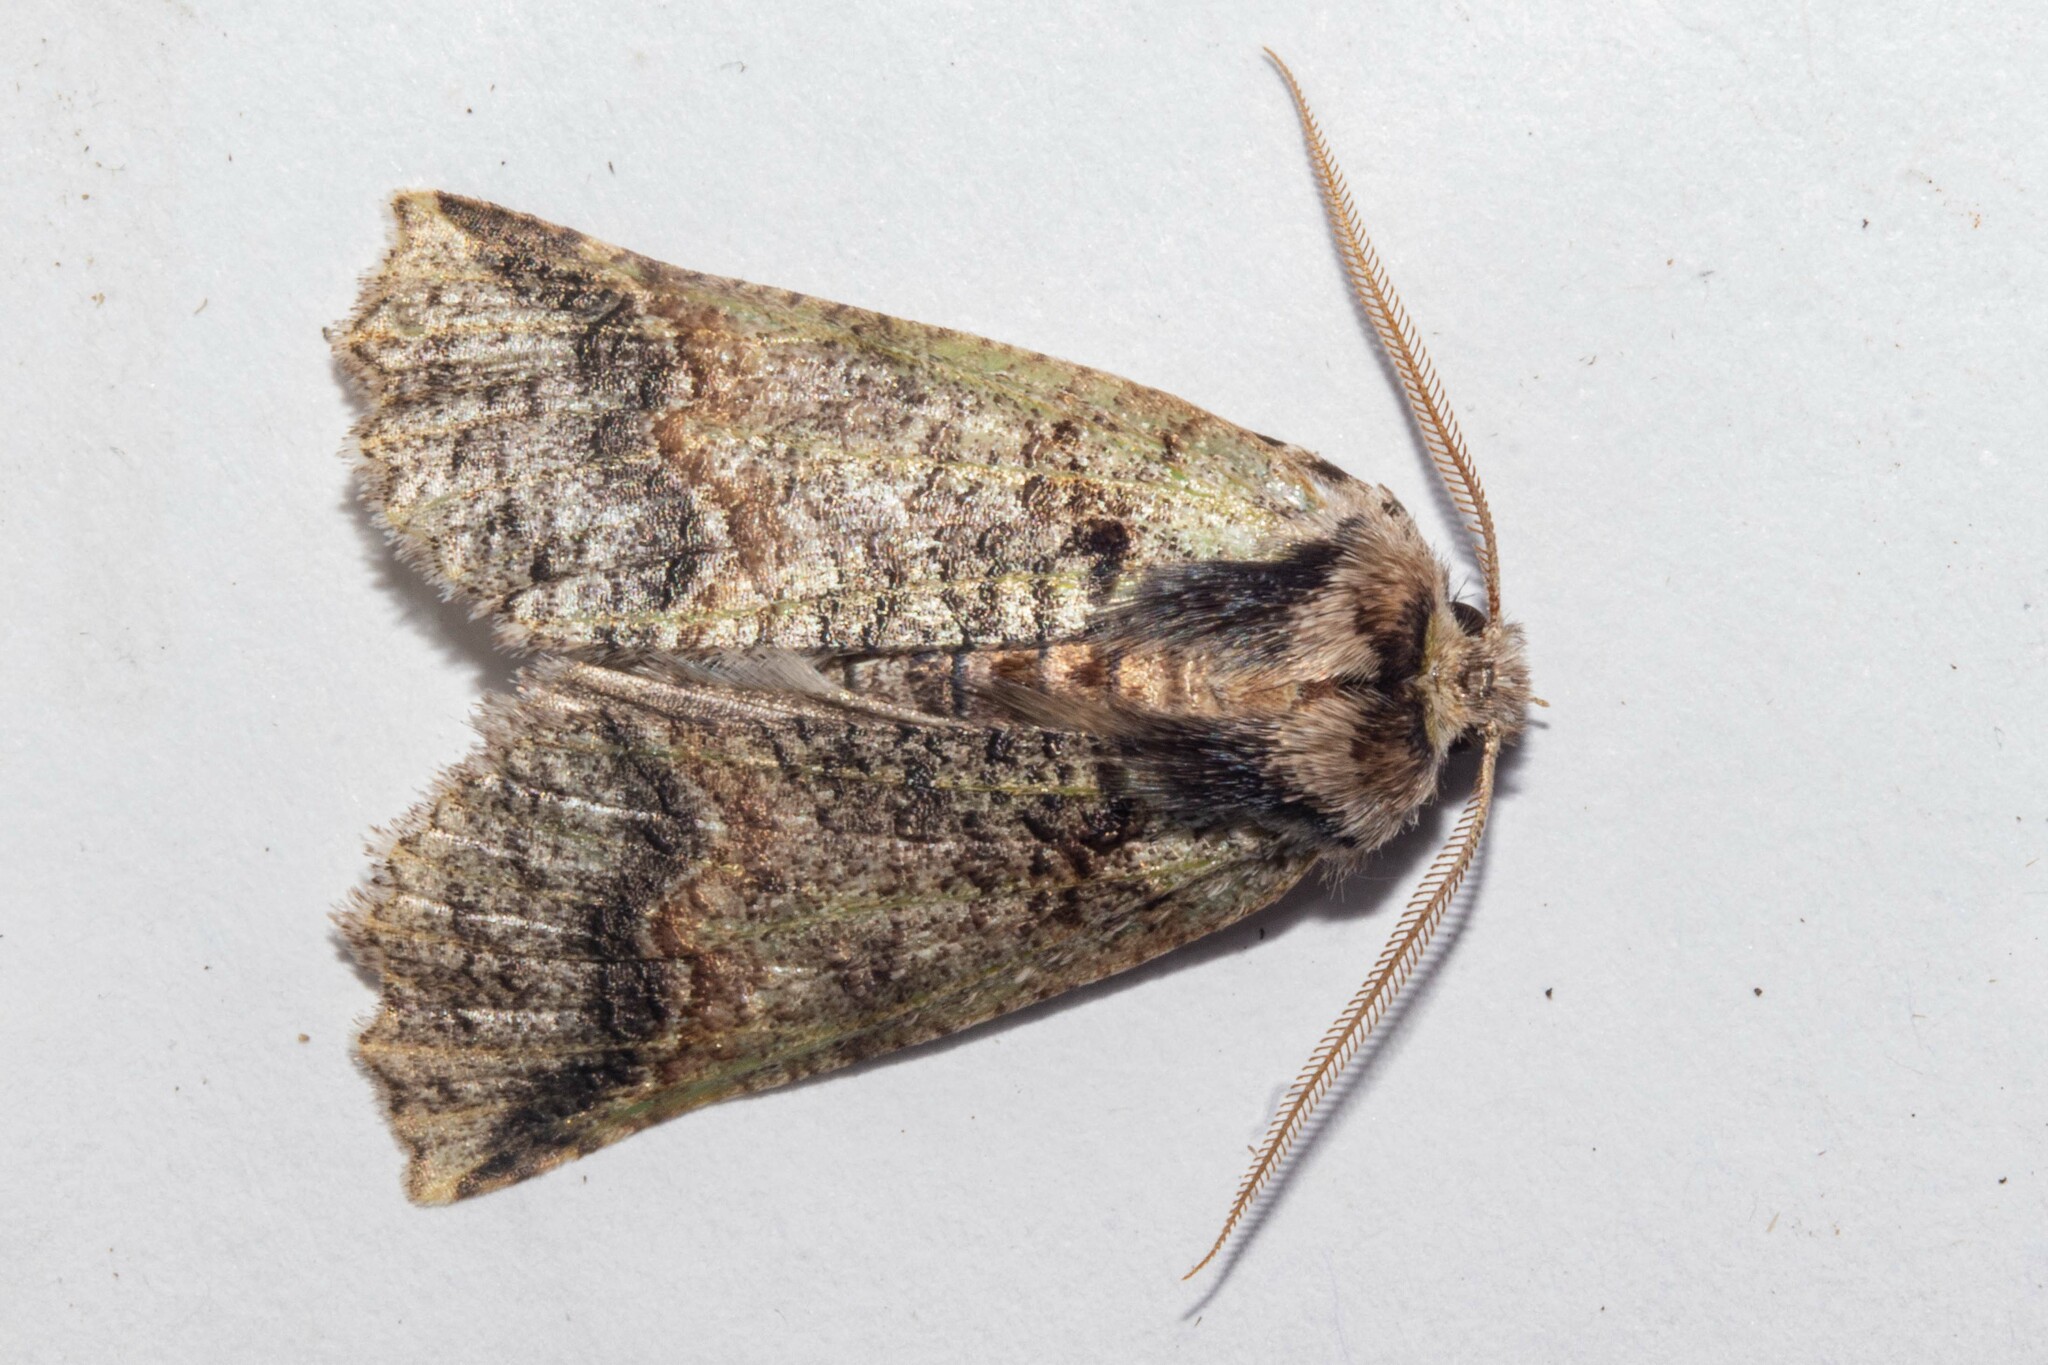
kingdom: Animalia
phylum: Arthropoda
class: Insecta
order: Lepidoptera
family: Geometridae
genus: Declana
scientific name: Declana floccosa
